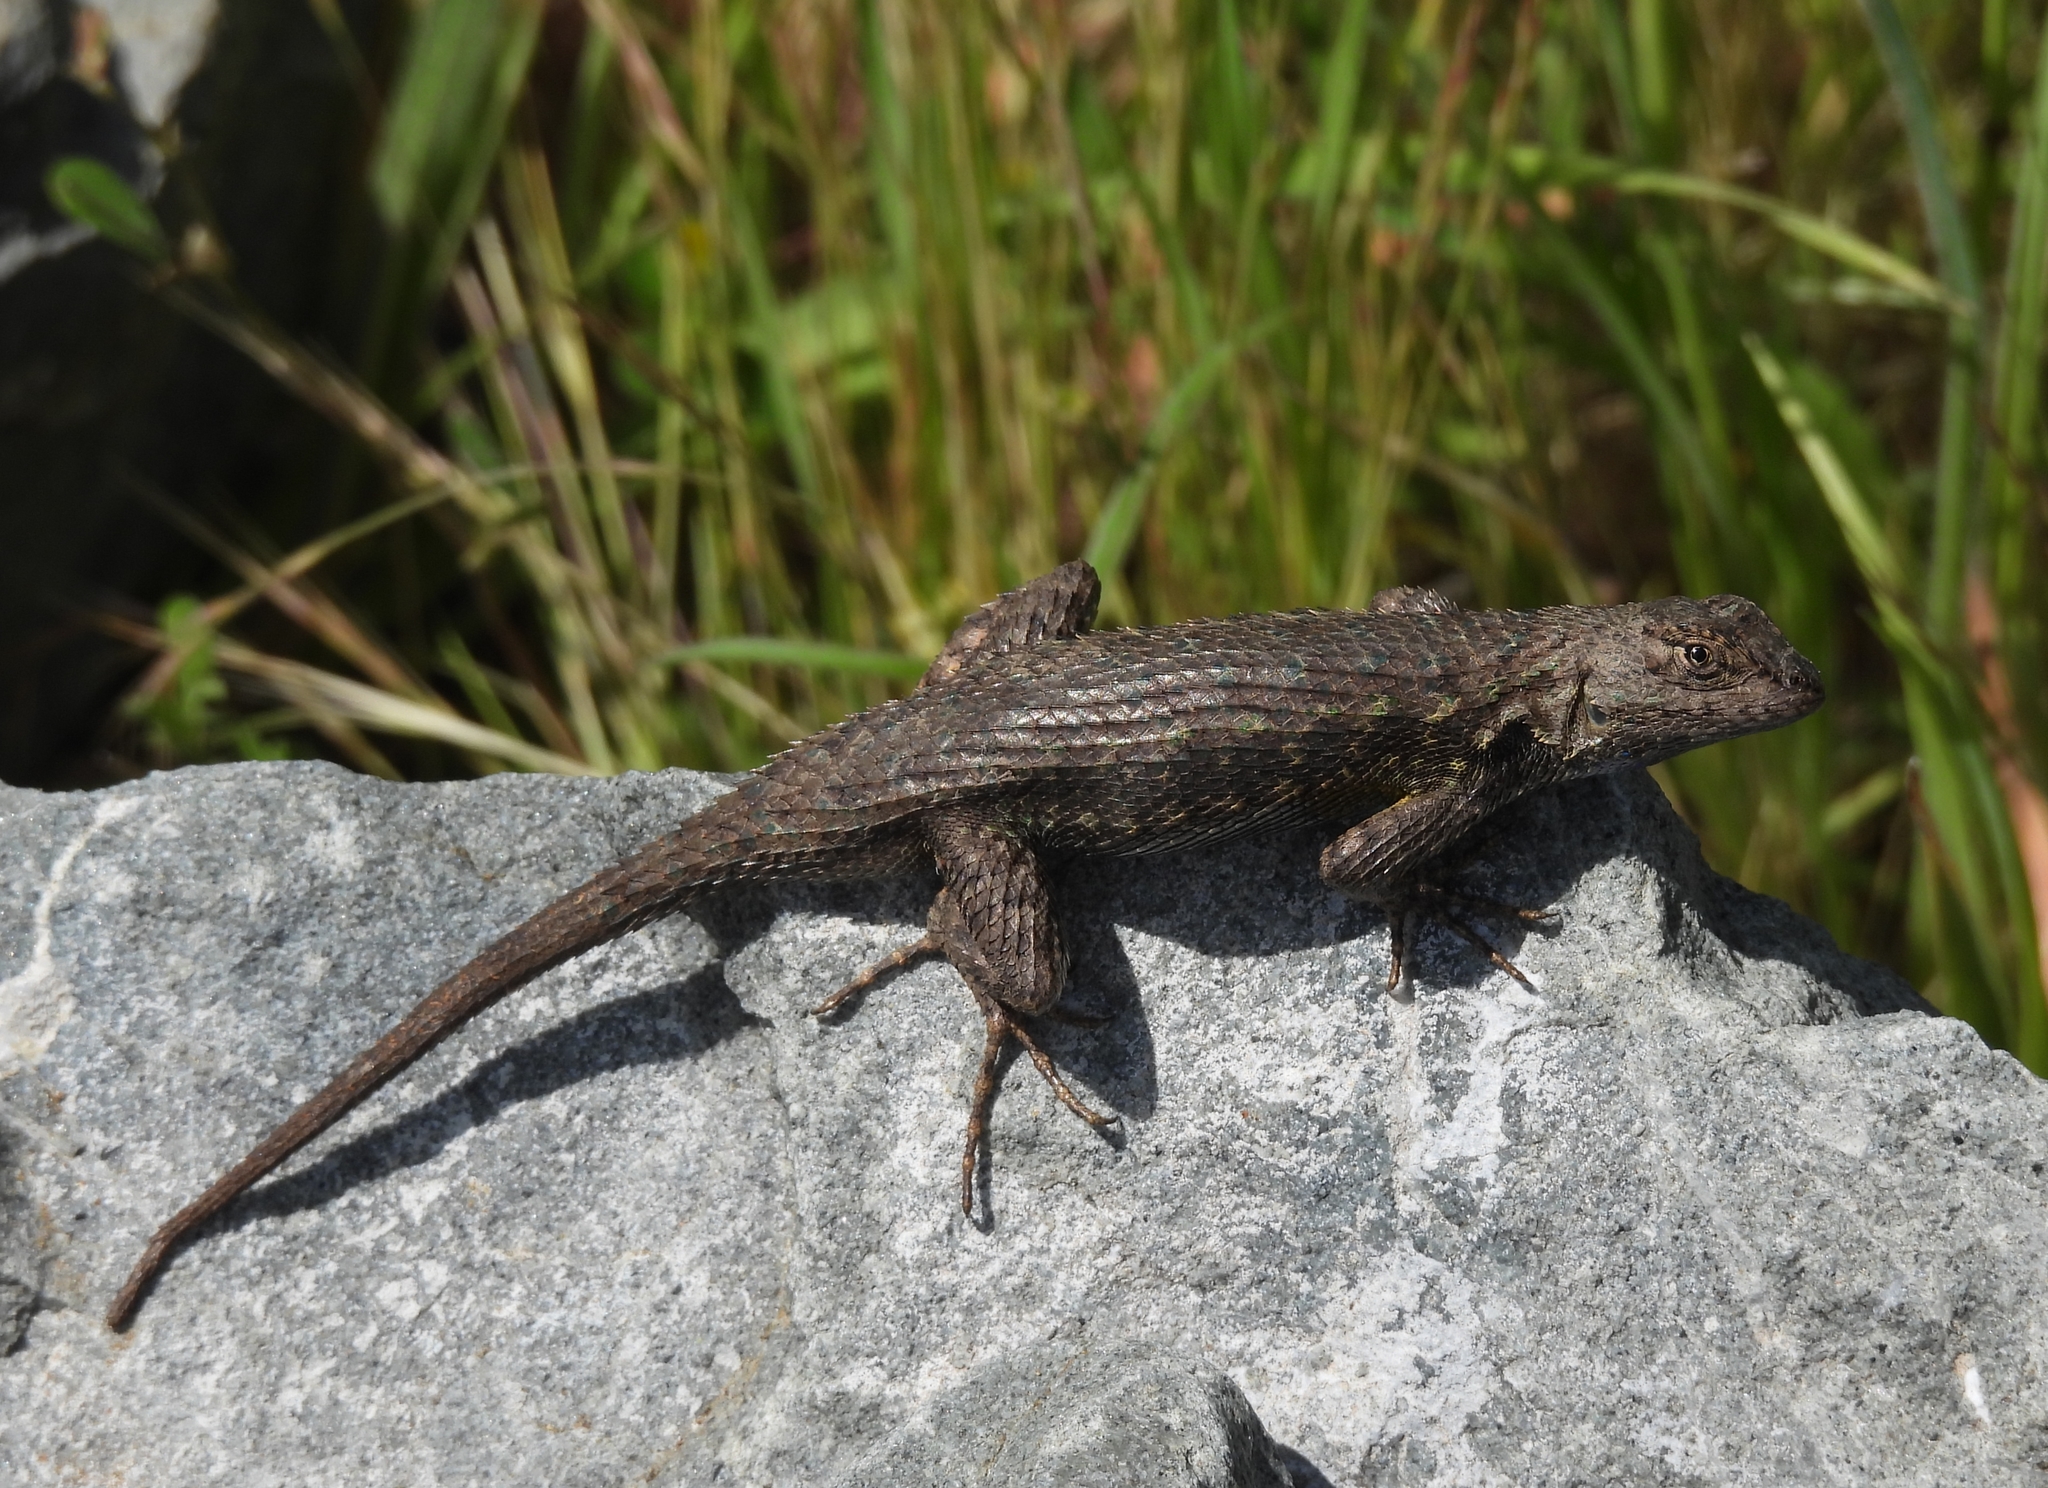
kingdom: Animalia
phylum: Chordata
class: Squamata
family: Phrynosomatidae
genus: Sceloporus
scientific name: Sceloporus occidentalis
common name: Western fence lizard
